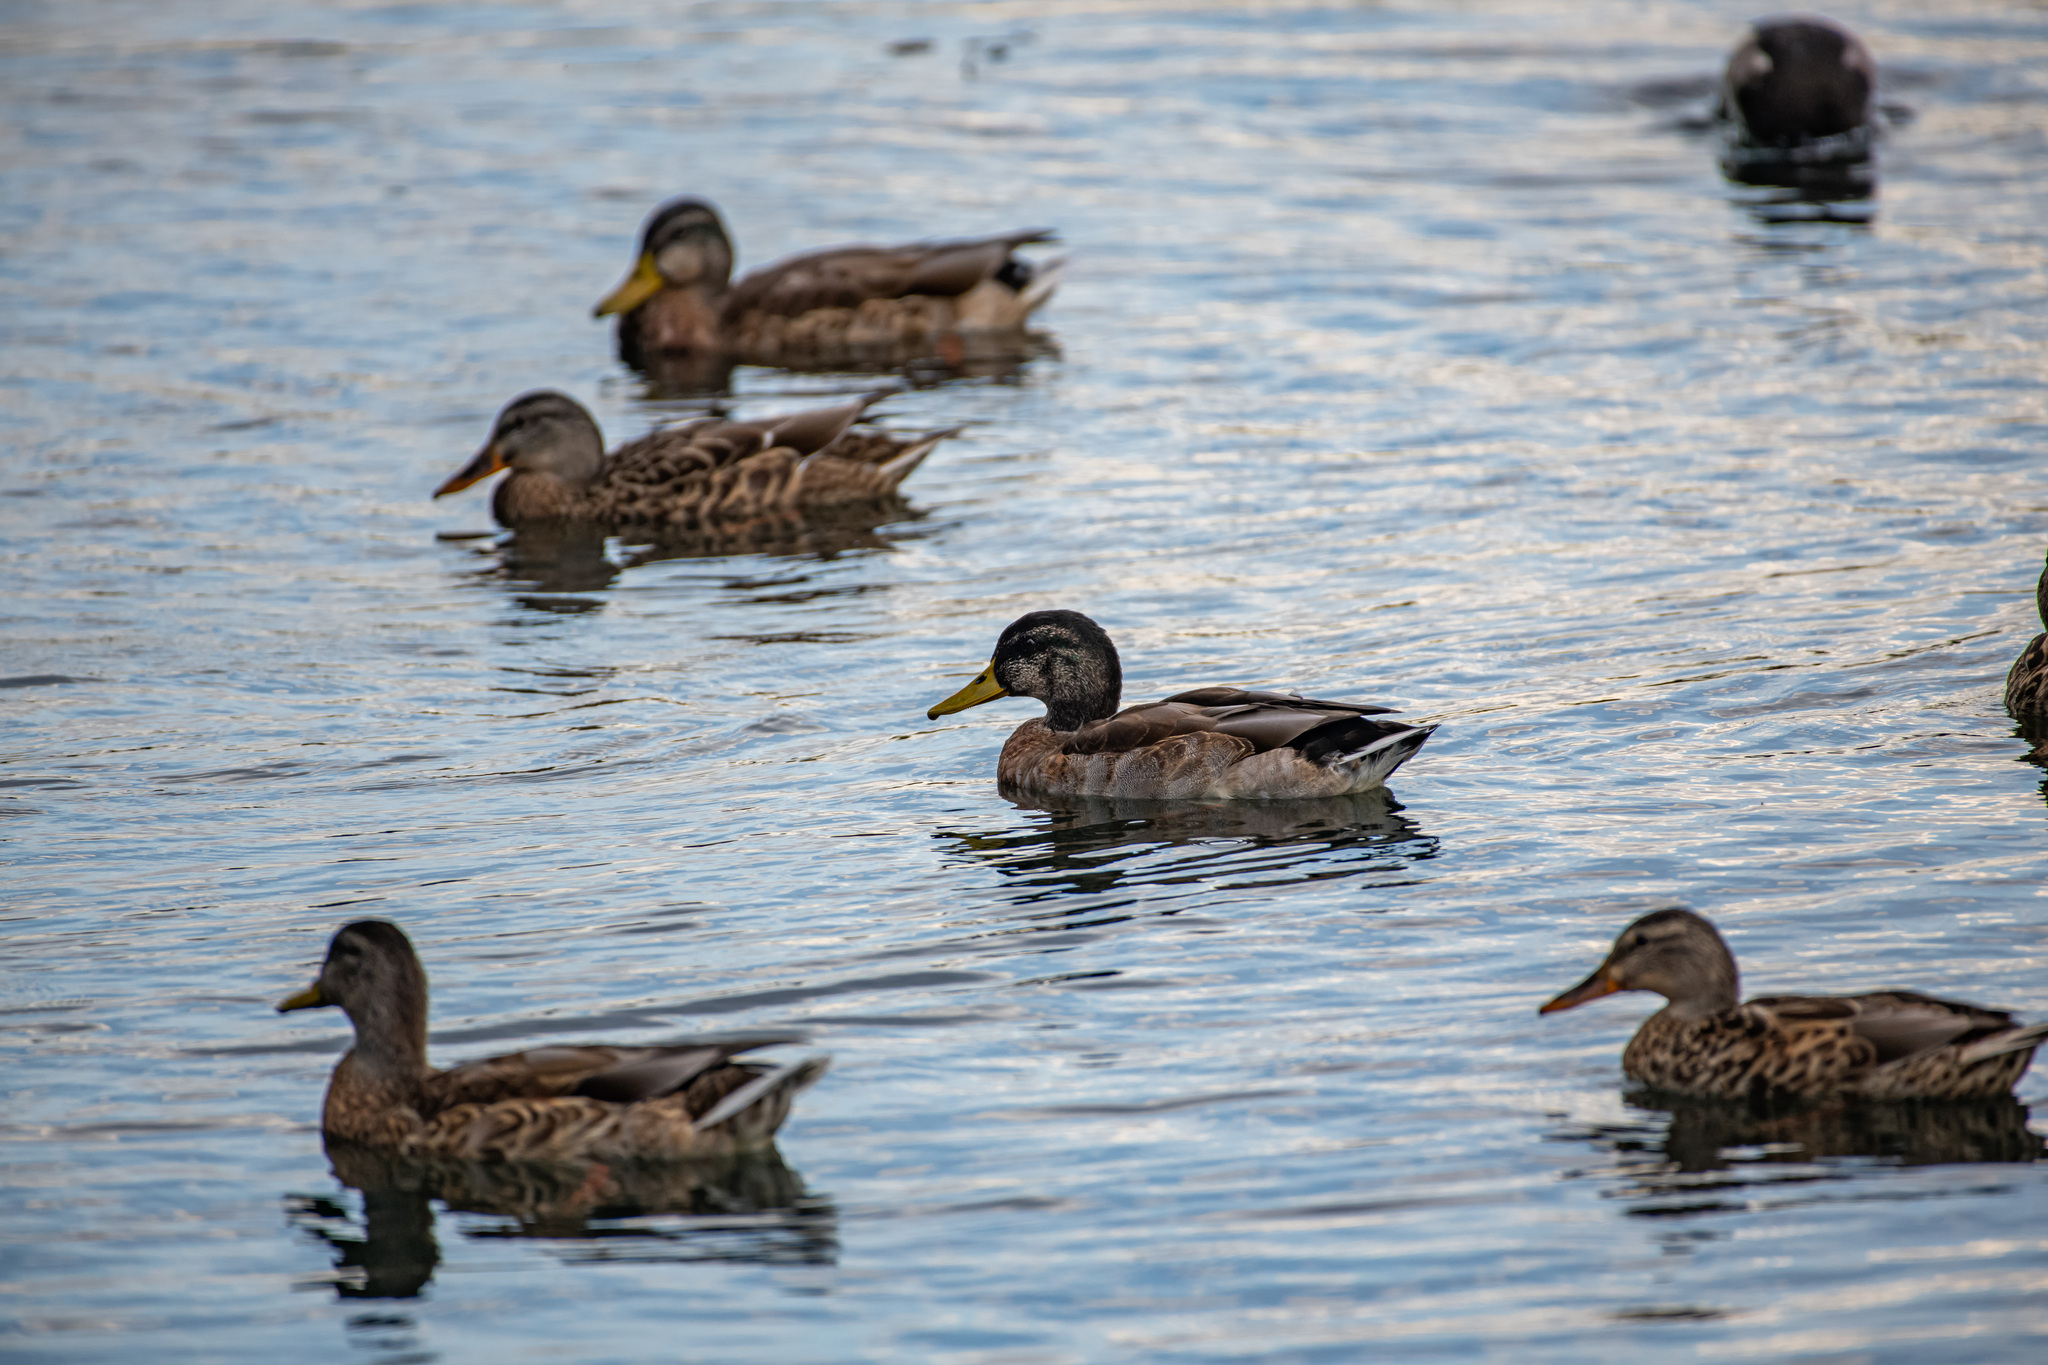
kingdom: Animalia
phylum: Chordata
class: Aves
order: Anseriformes
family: Anatidae
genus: Anas
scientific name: Anas platyrhynchos
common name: Mallard
